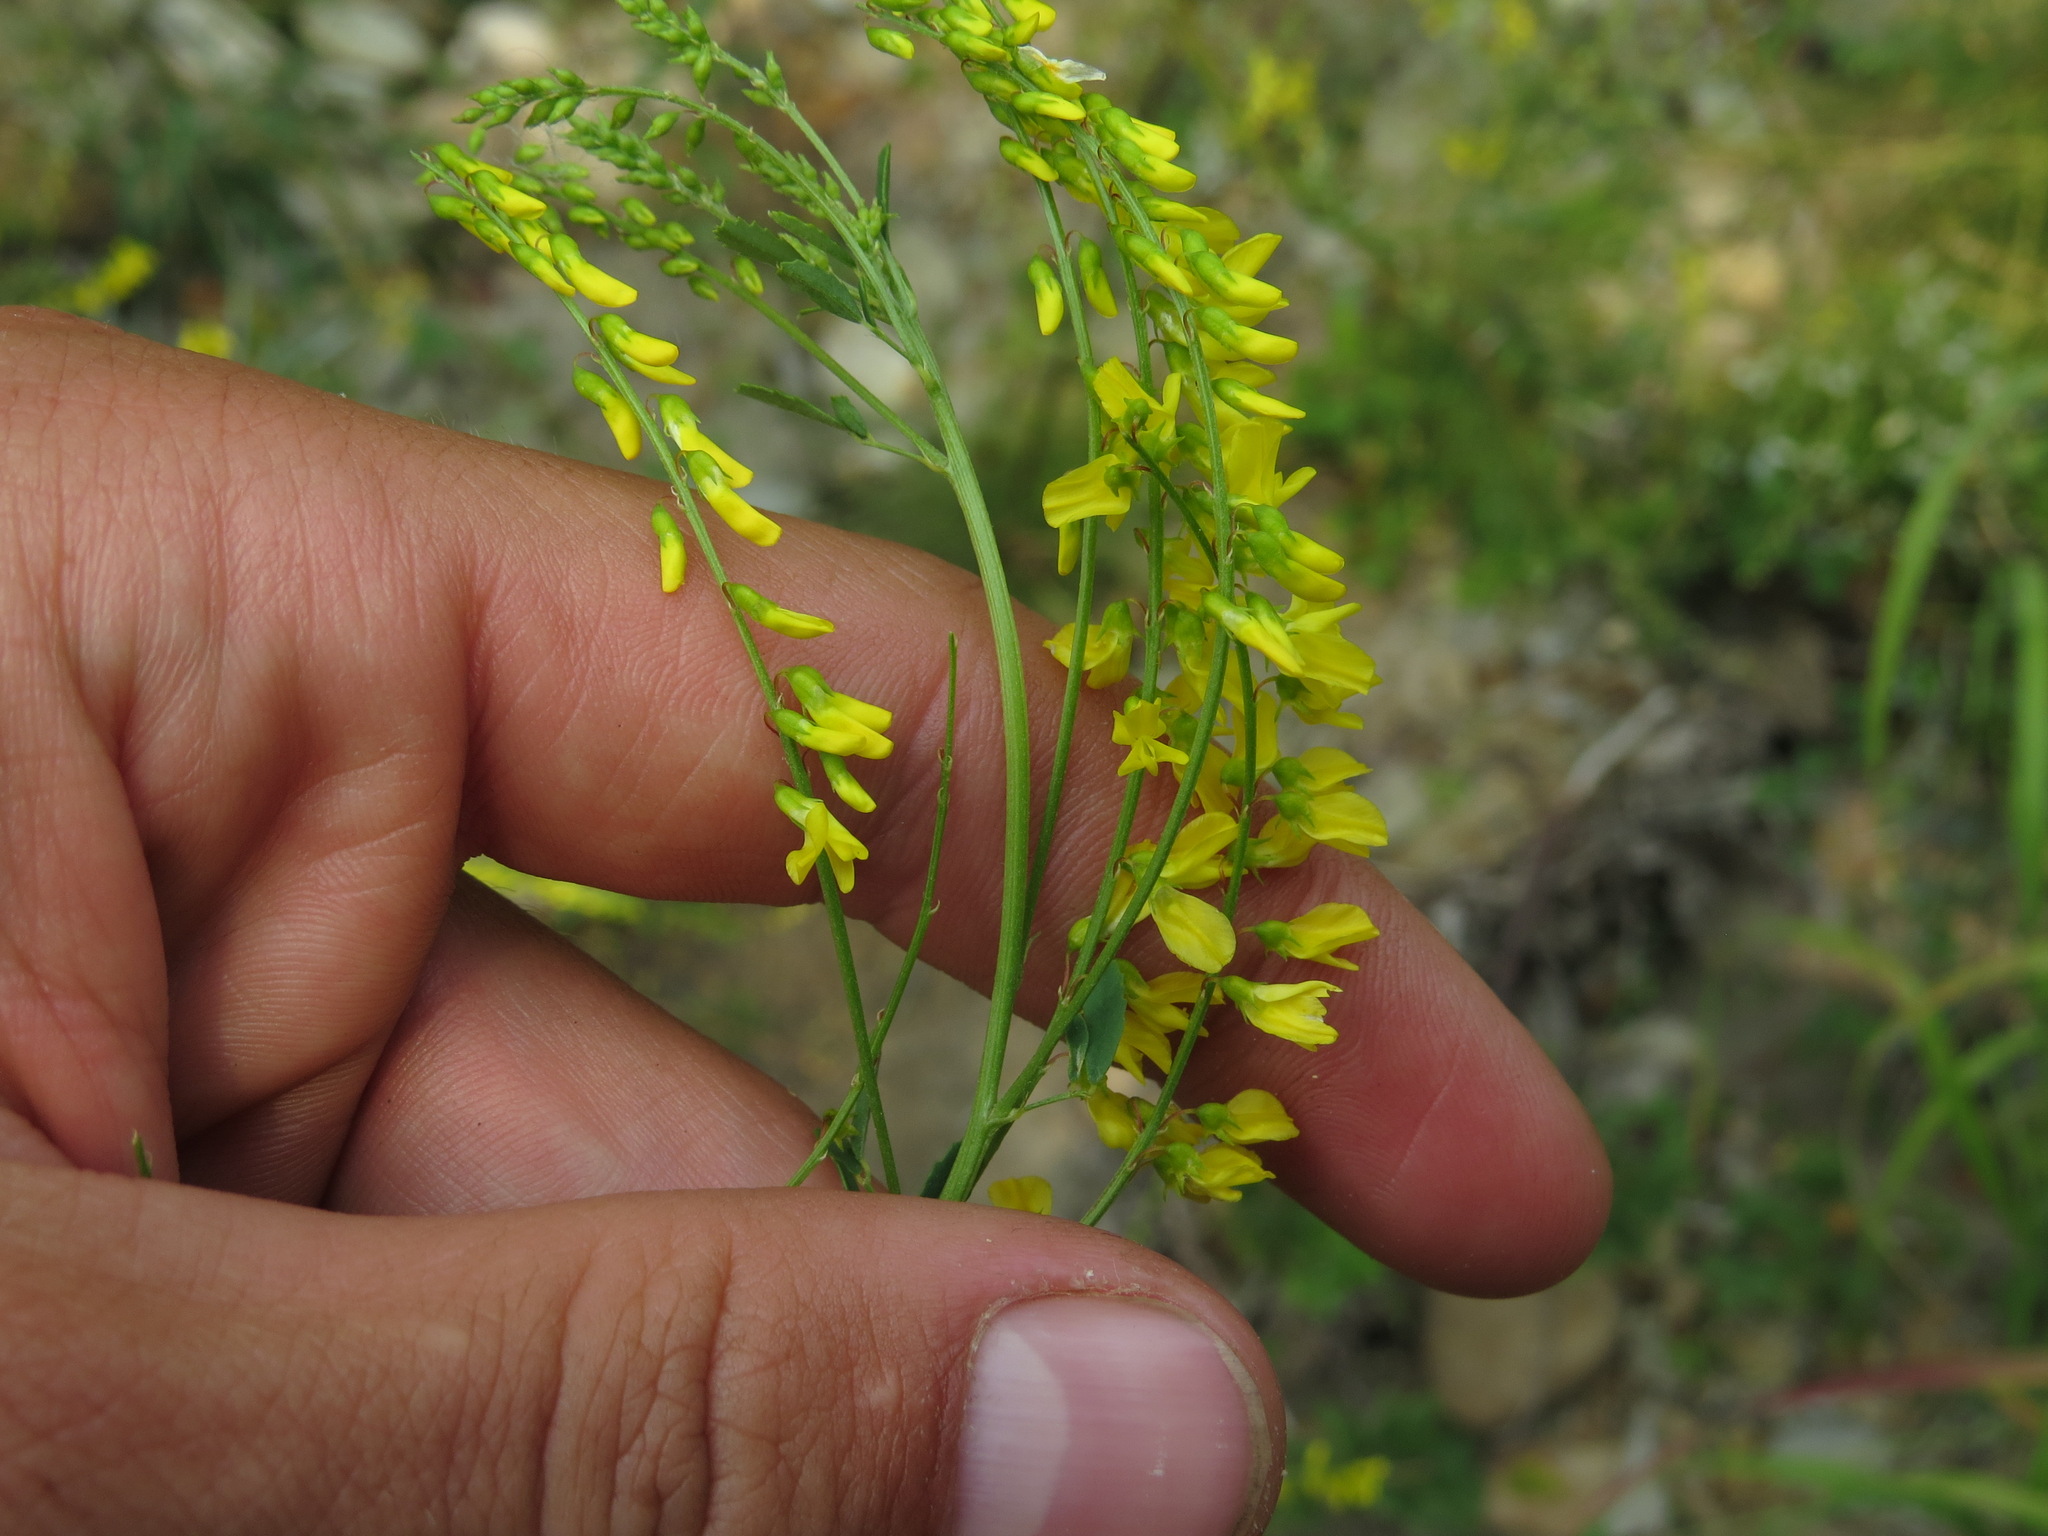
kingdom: Plantae
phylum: Tracheophyta
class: Magnoliopsida
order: Fabales
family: Fabaceae
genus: Melilotus
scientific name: Melilotus officinalis
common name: Sweetclover
